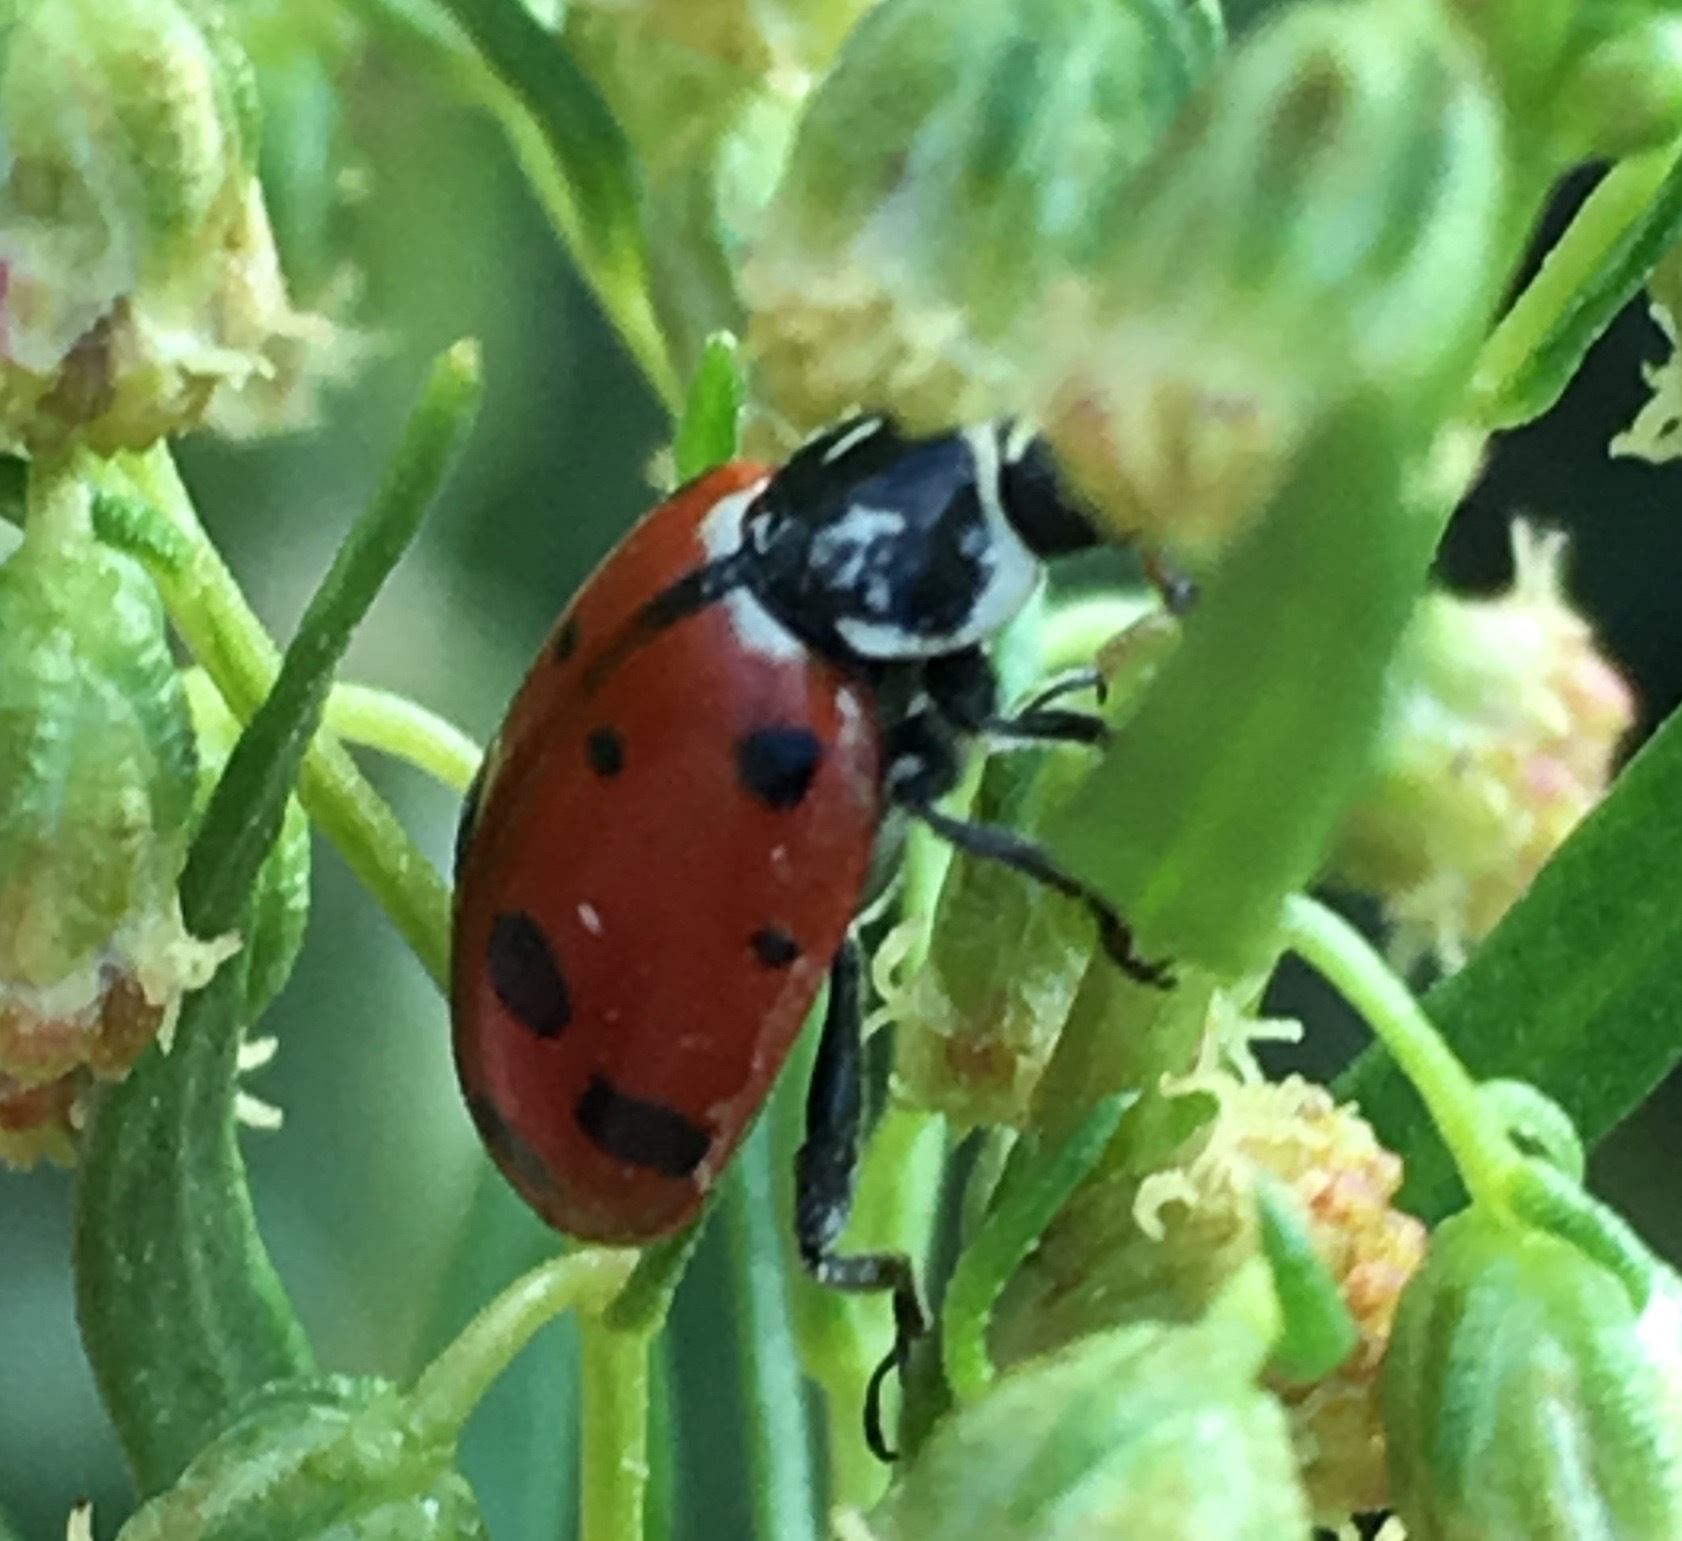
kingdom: Animalia
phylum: Arthropoda
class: Insecta
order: Coleoptera
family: Coccinellidae
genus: Hippodamia
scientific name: Hippodamia convergens
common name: Convergent lady beetle
